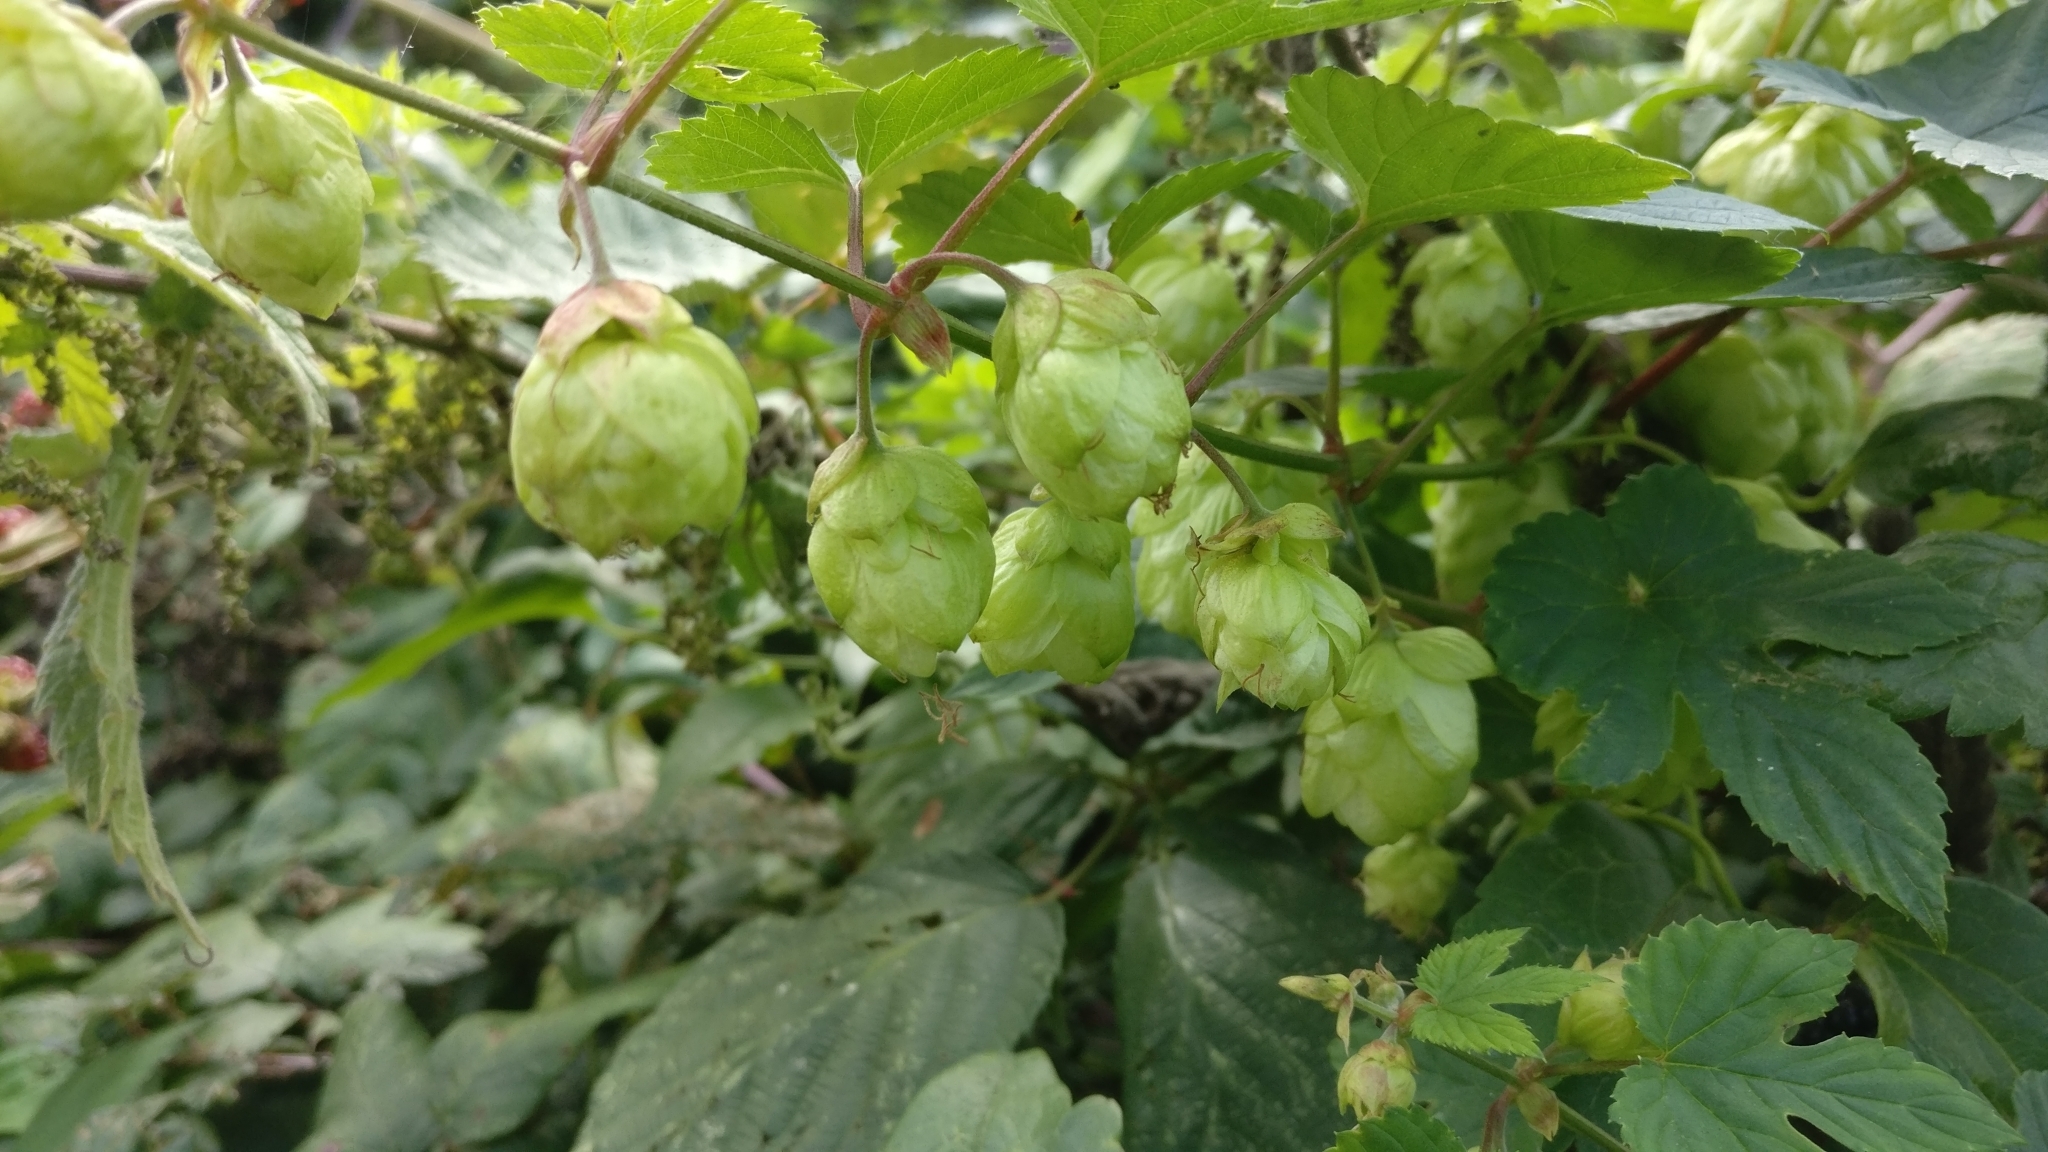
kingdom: Plantae
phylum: Tracheophyta
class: Magnoliopsida
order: Rosales
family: Cannabaceae
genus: Humulus
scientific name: Humulus lupulus
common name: Hop
